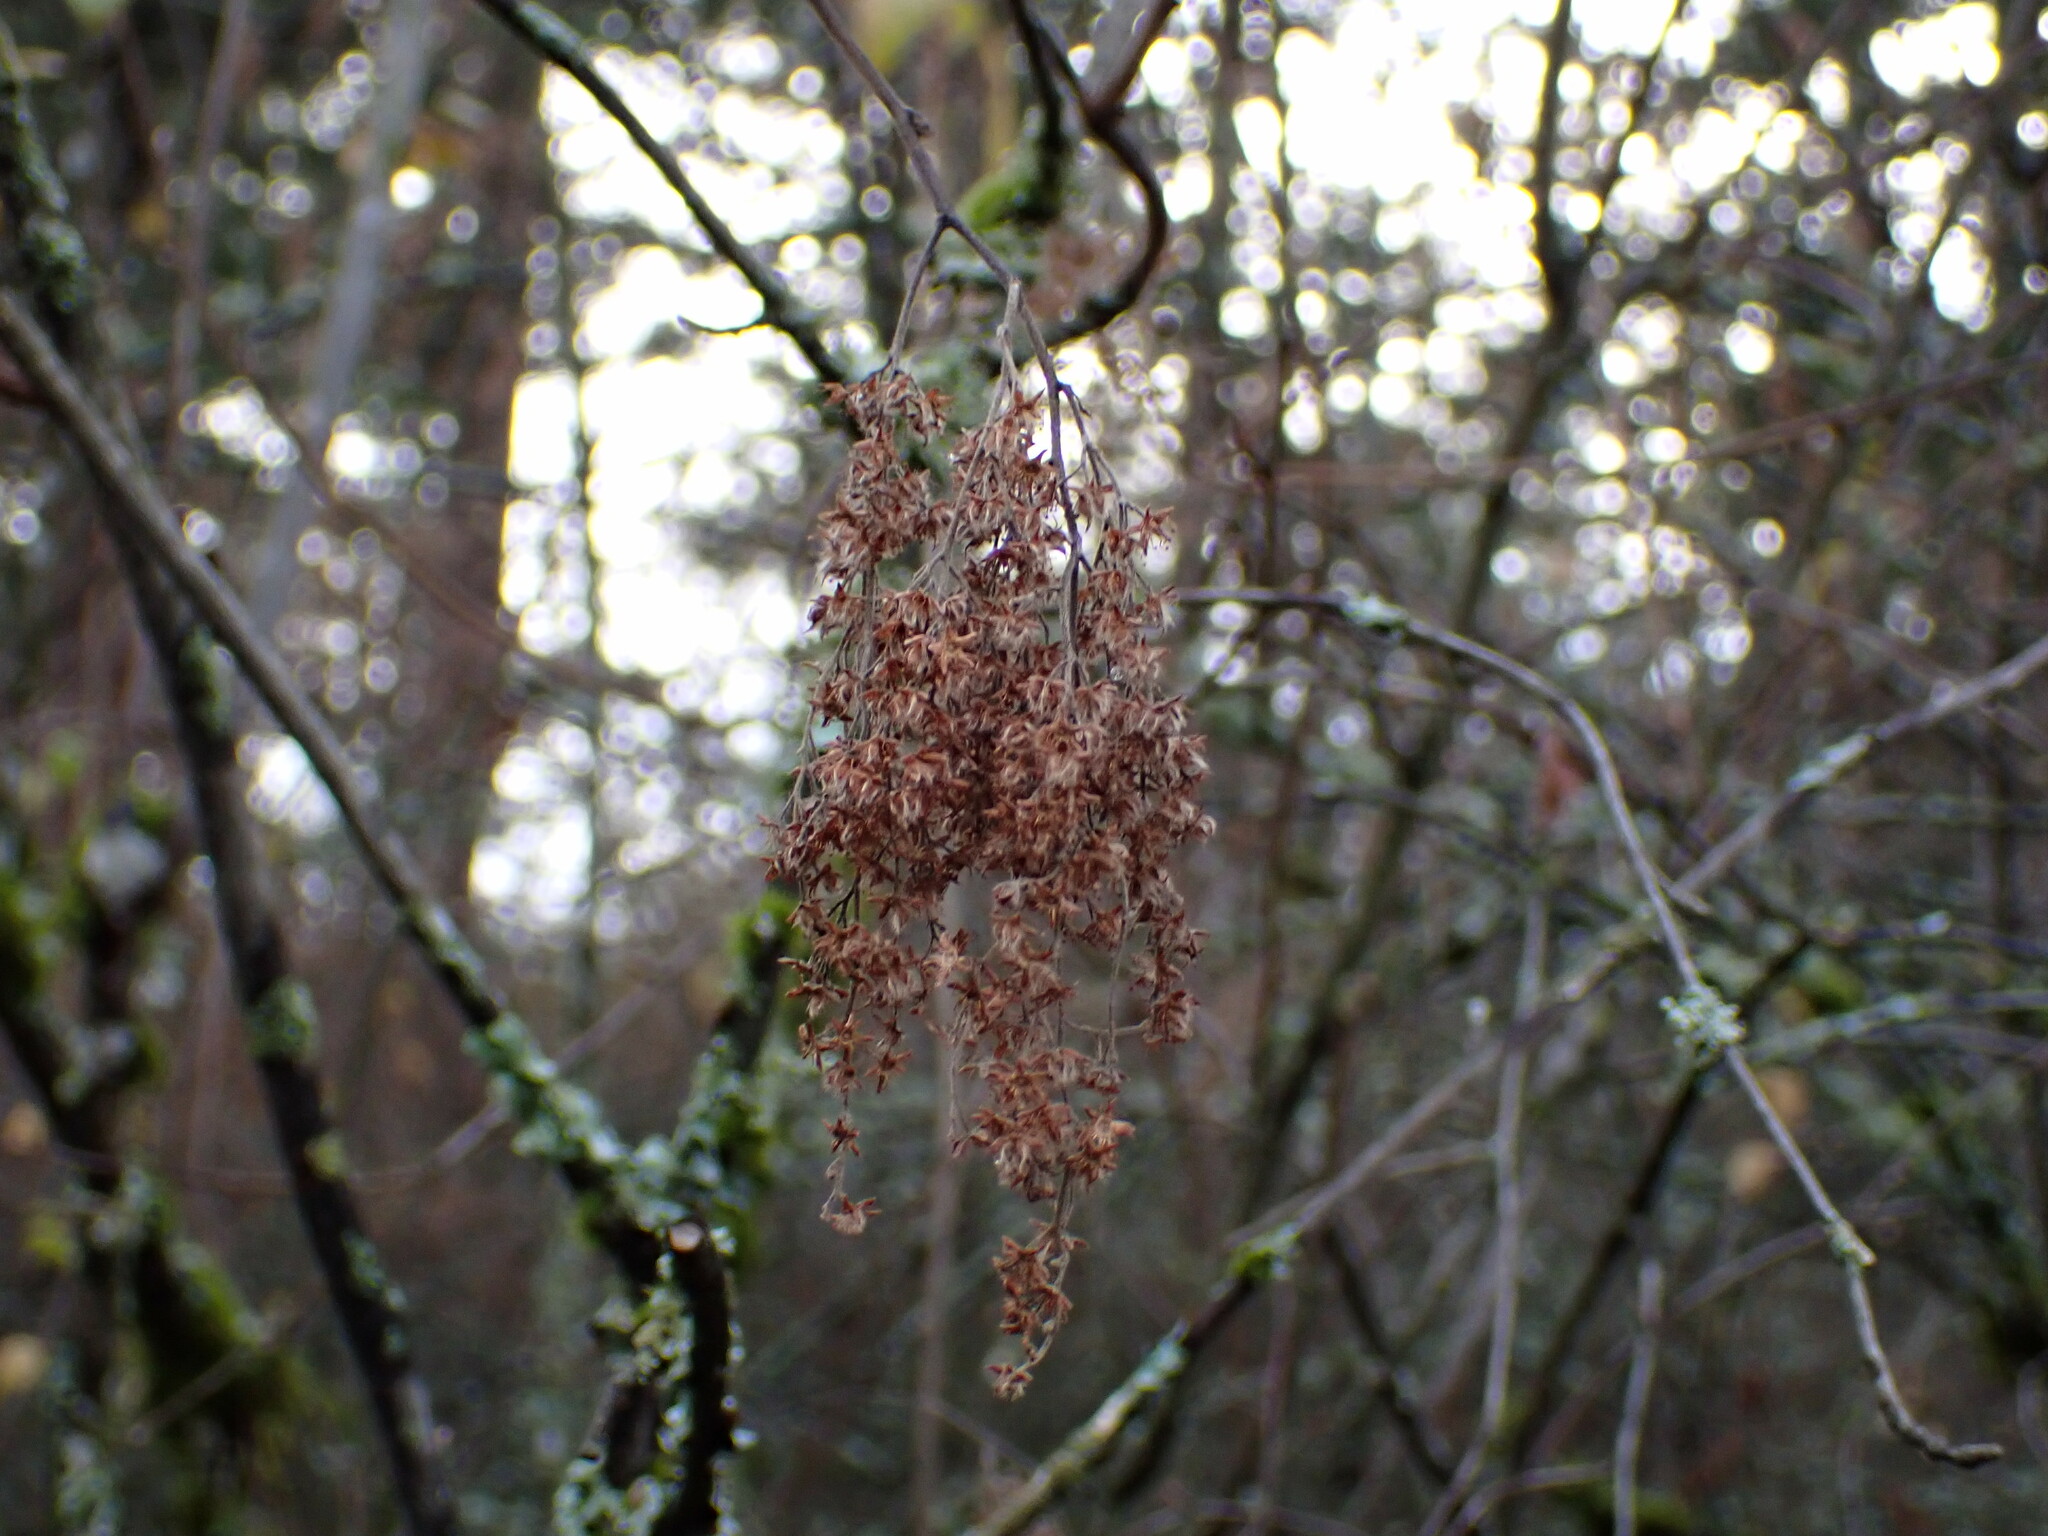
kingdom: Plantae
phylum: Tracheophyta
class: Magnoliopsida
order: Rosales
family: Rosaceae
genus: Holodiscus
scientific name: Holodiscus discolor
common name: Oceanspray
